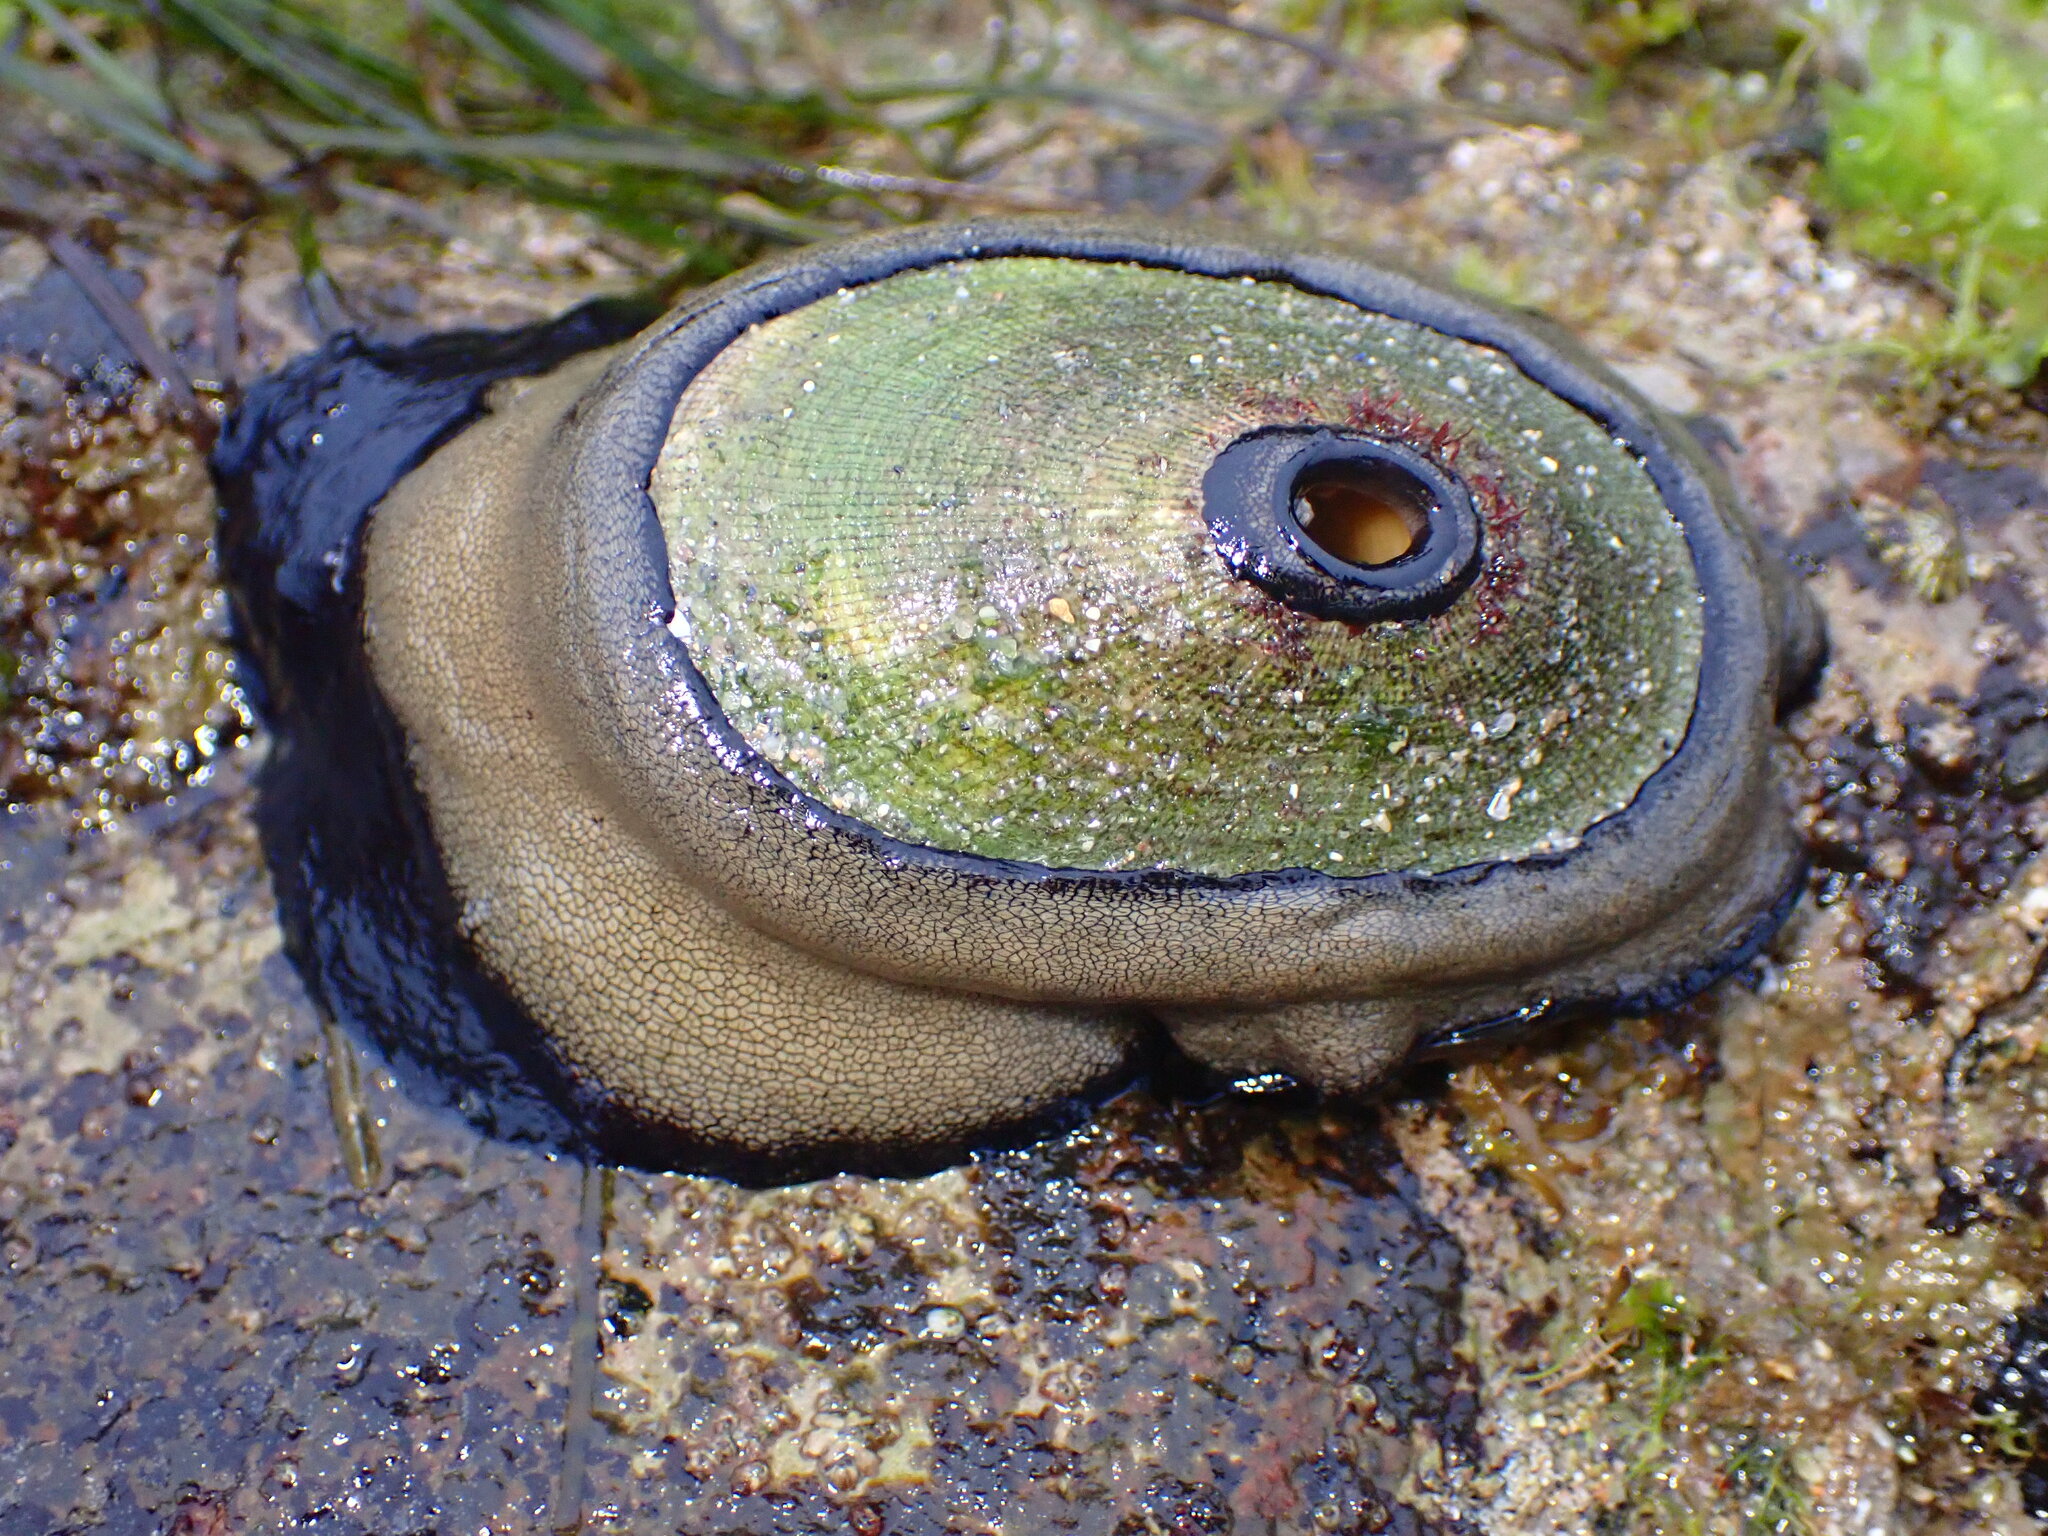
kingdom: Animalia
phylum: Mollusca
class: Gastropoda
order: Lepetellida
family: Fissurellidae
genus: Megathura
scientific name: Megathura crenulata
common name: Giant keyhole limpet
